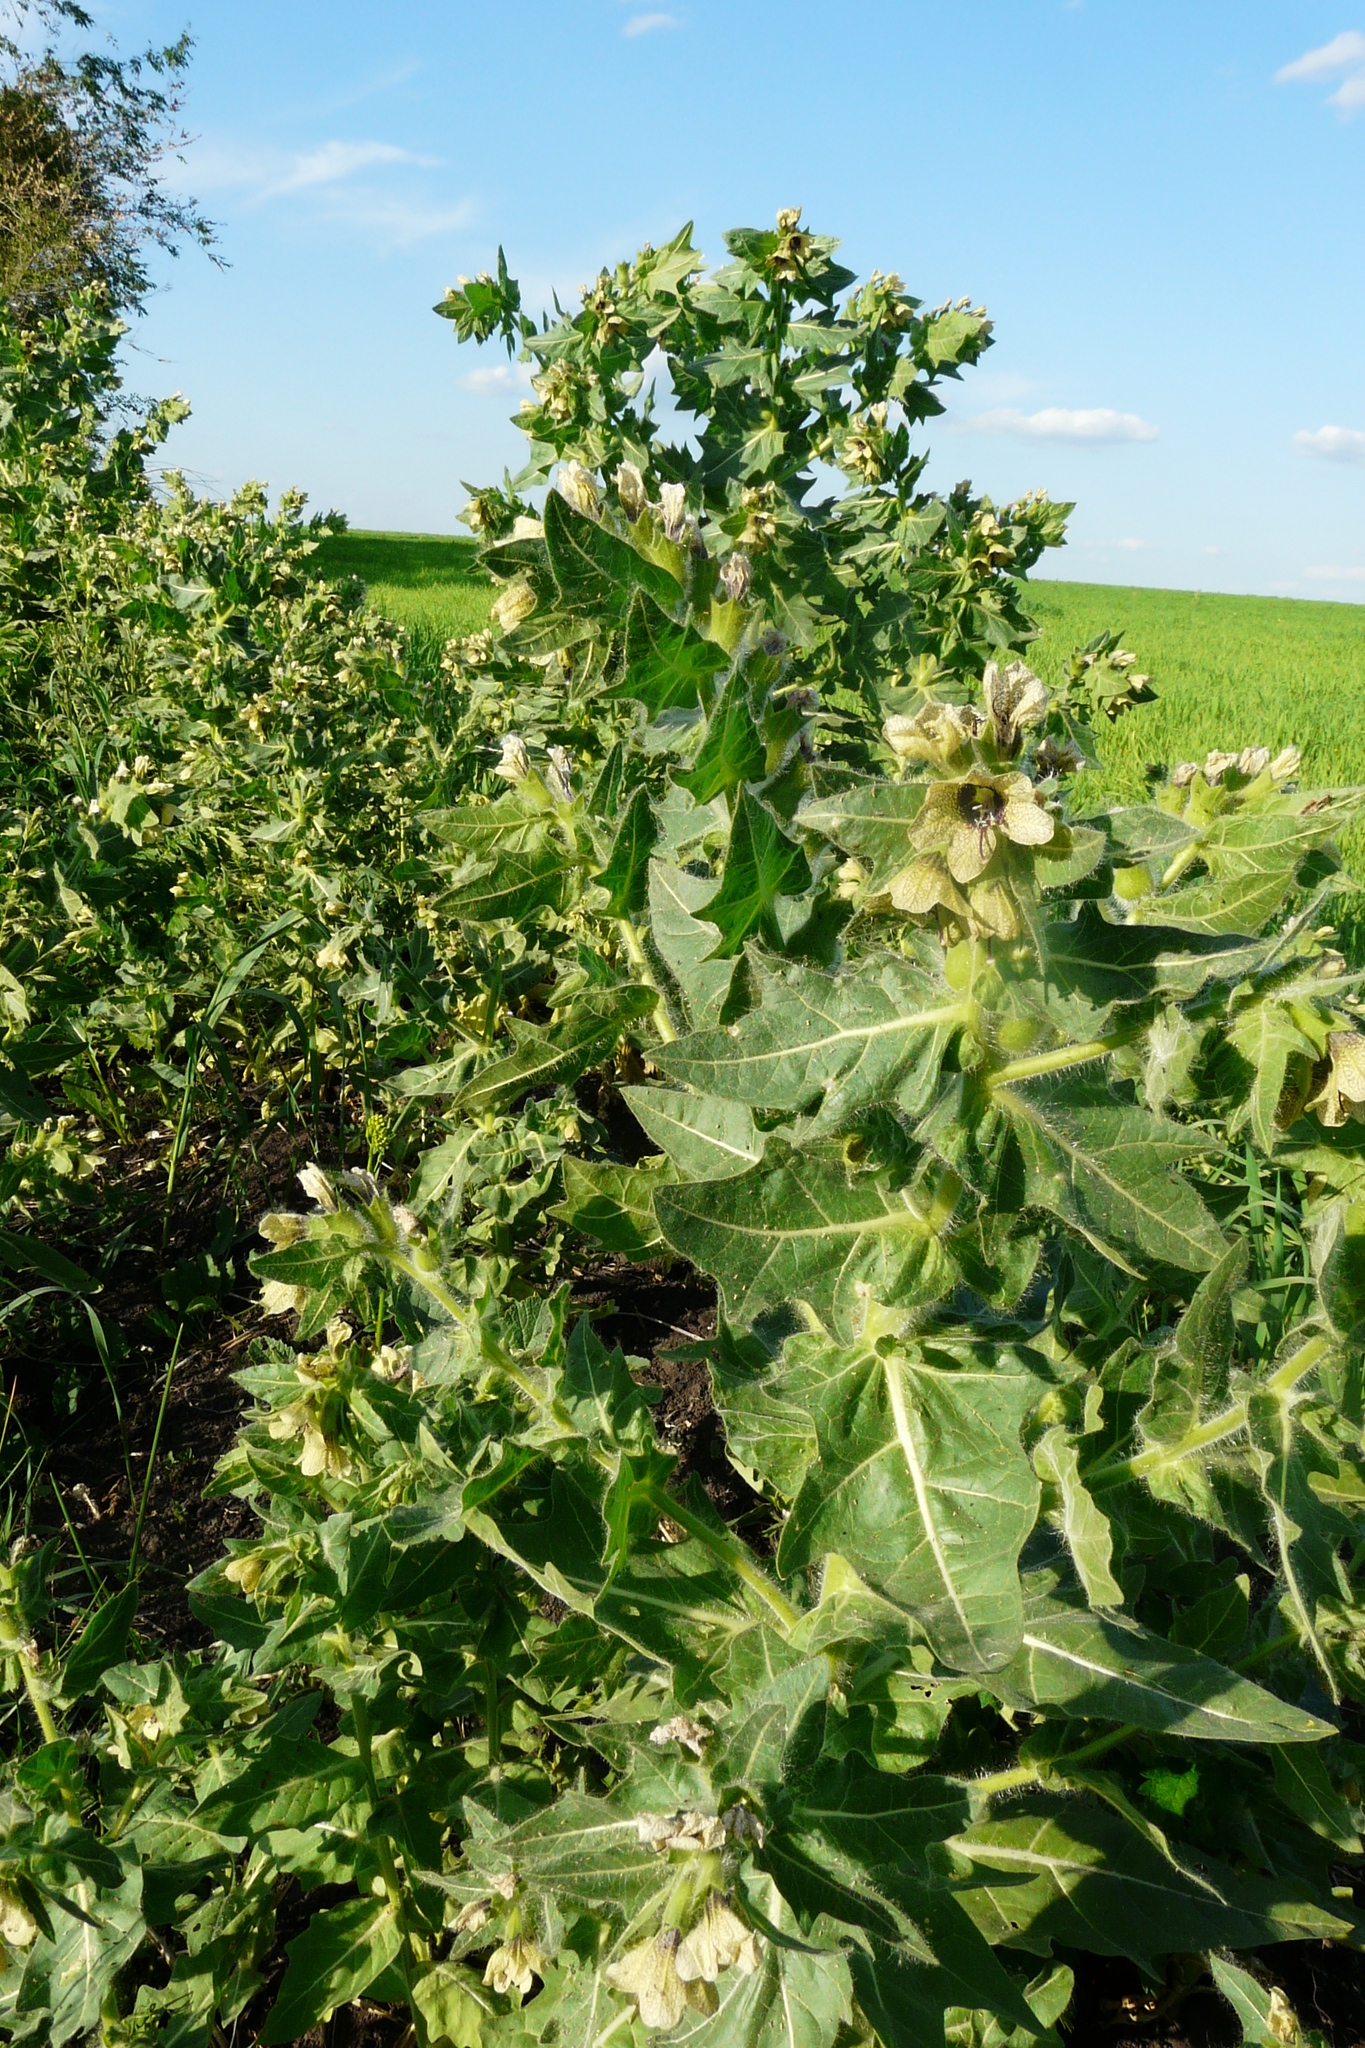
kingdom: Plantae
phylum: Tracheophyta
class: Magnoliopsida
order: Solanales
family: Solanaceae
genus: Hyoscyamus
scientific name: Hyoscyamus niger
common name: Henbane
